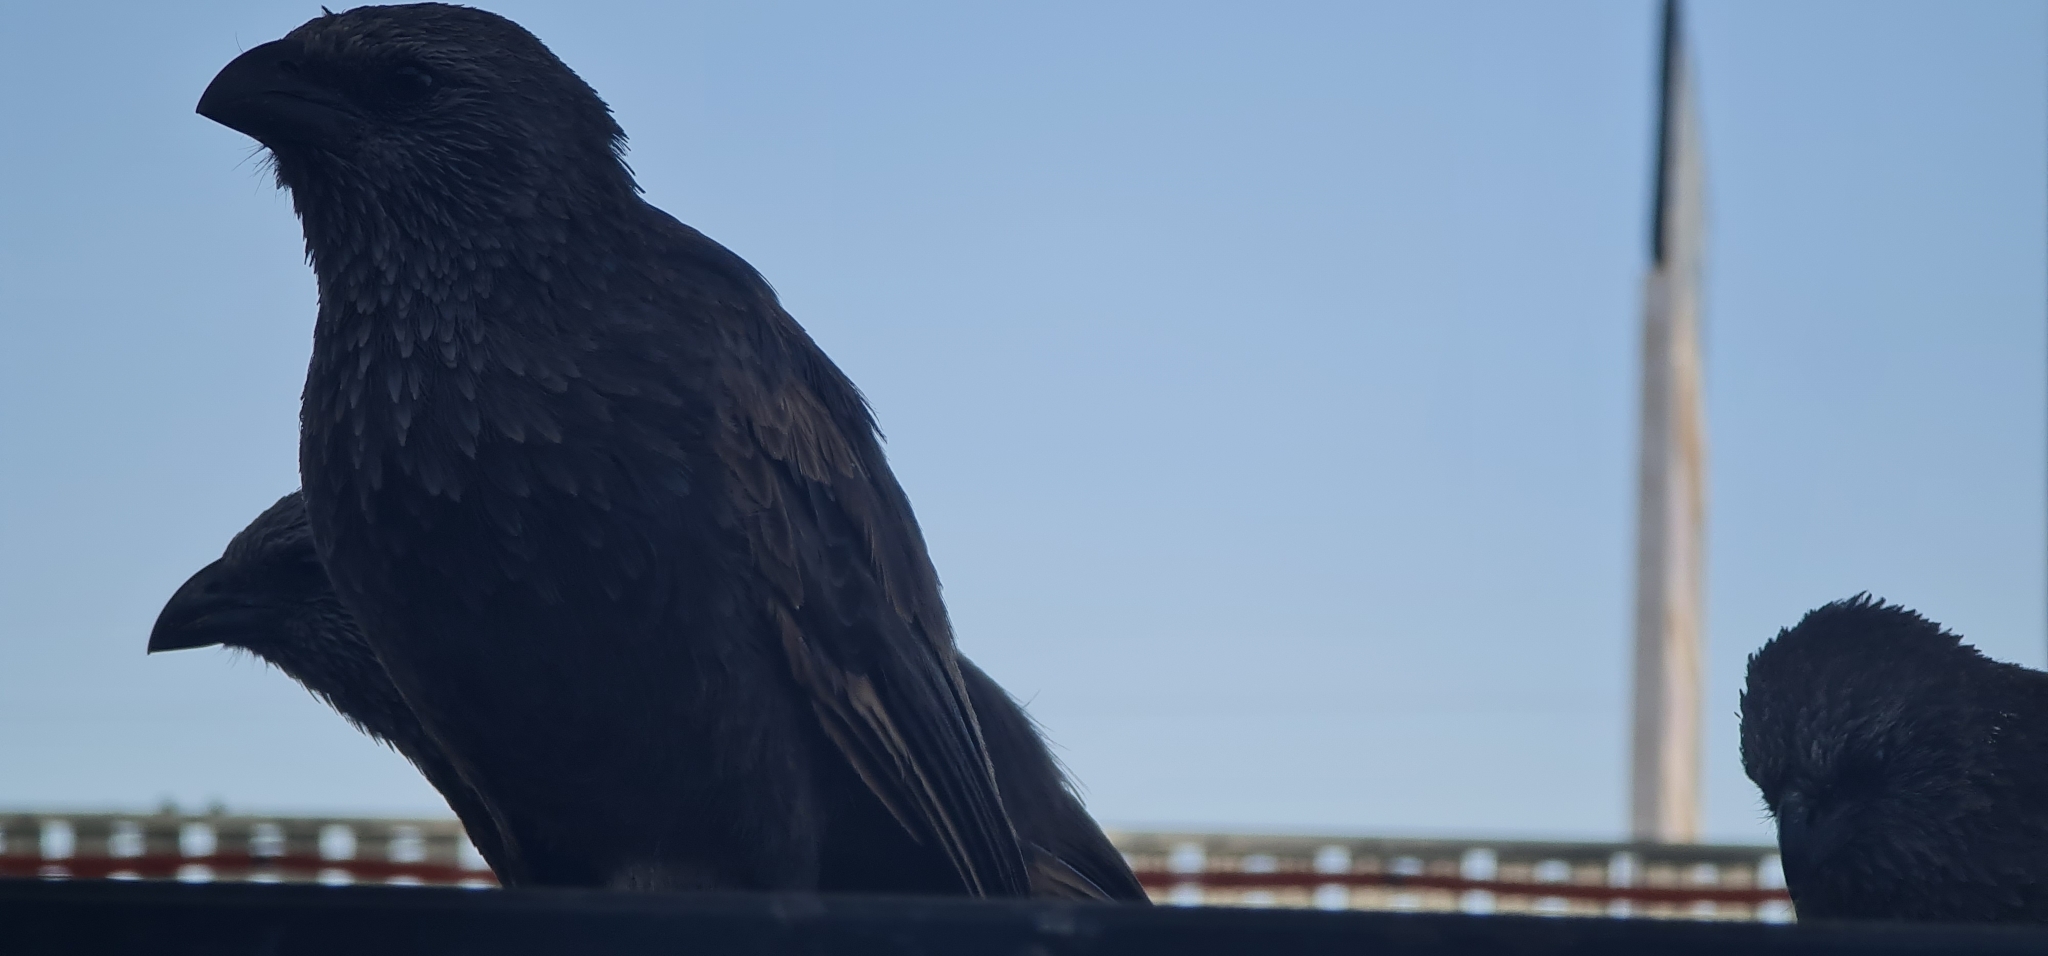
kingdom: Animalia
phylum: Chordata
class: Aves
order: Passeriformes
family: Corcoracidae
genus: Struthidea
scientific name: Struthidea cinerea
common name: Apostlebird
